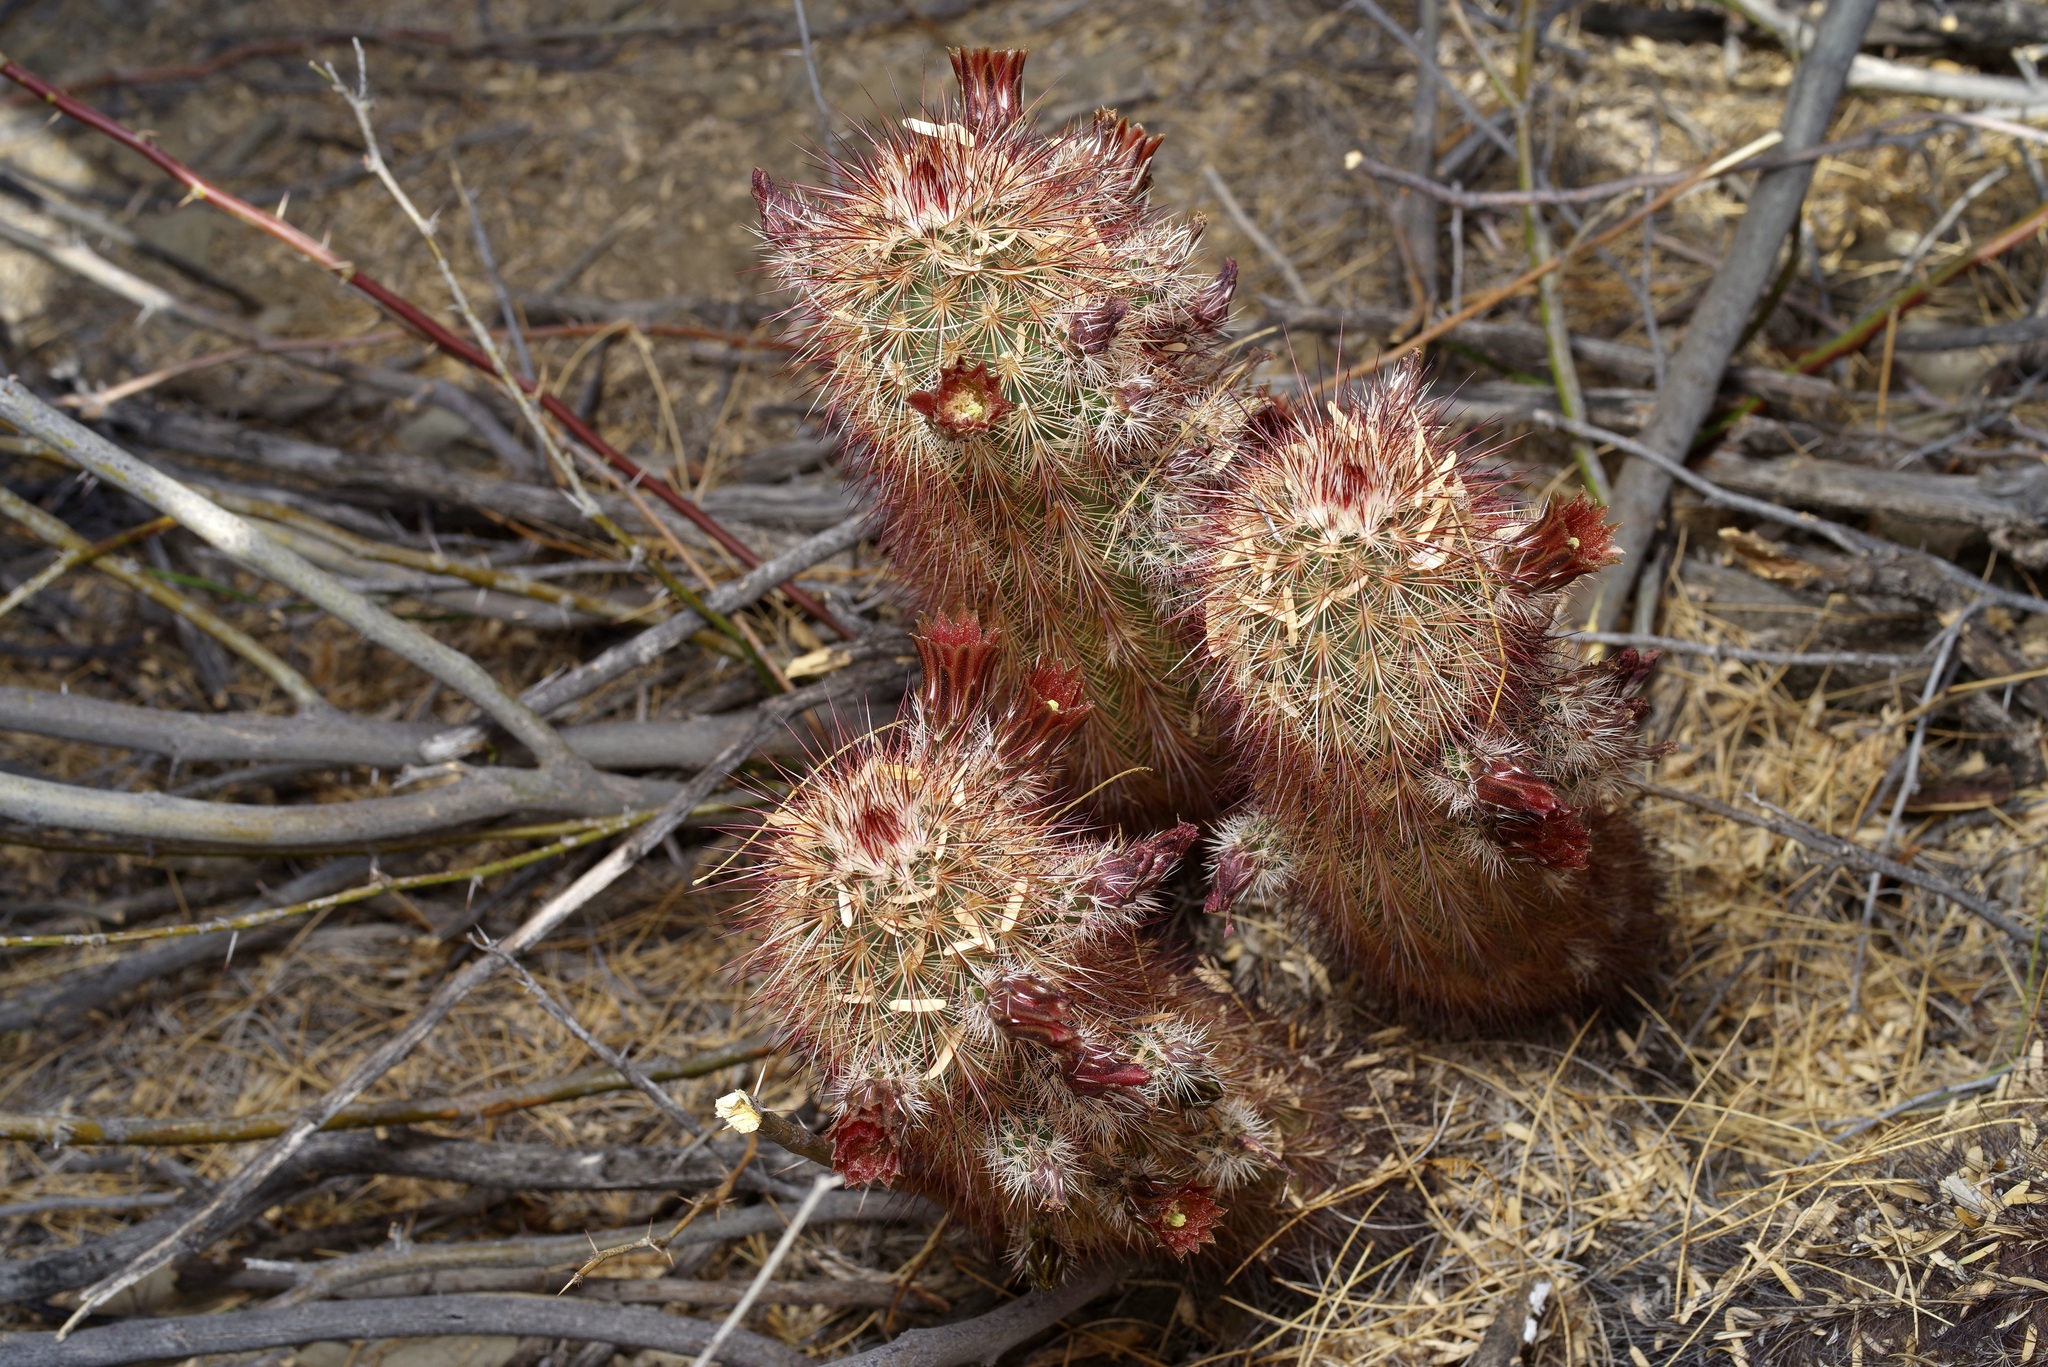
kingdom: Plantae
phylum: Tracheophyta
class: Magnoliopsida
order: Caryophyllales
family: Cactaceae
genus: Echinocereus
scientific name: Echinocereus russanthus
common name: Brownspine hedgehog cactus
